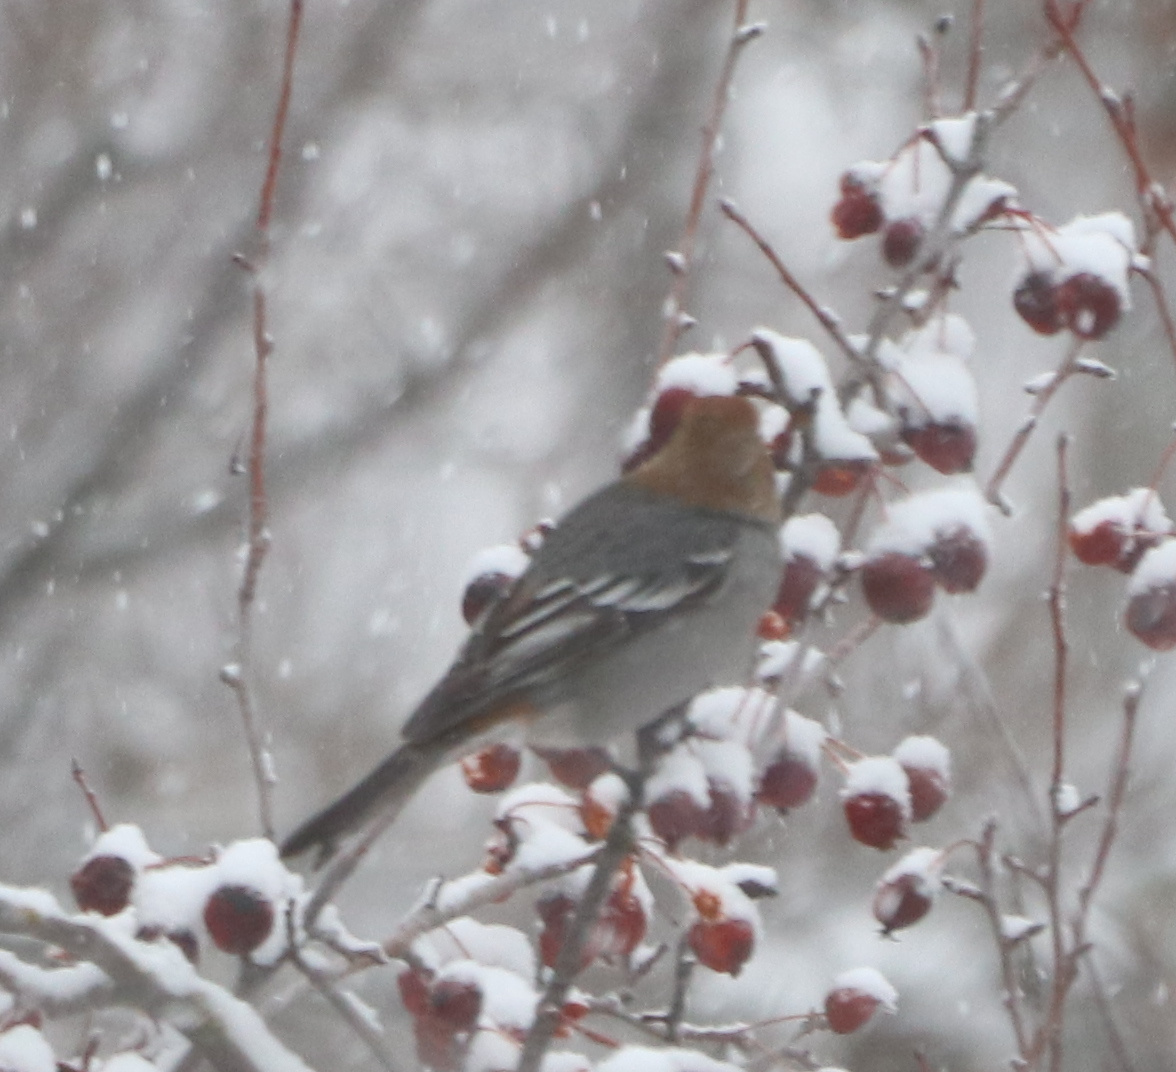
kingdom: Animalia
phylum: Chordata
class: Aves
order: Passeriformes
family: Fringillidae
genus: Pinicola
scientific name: Pinicola enucleator
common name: Pine grosbeak
